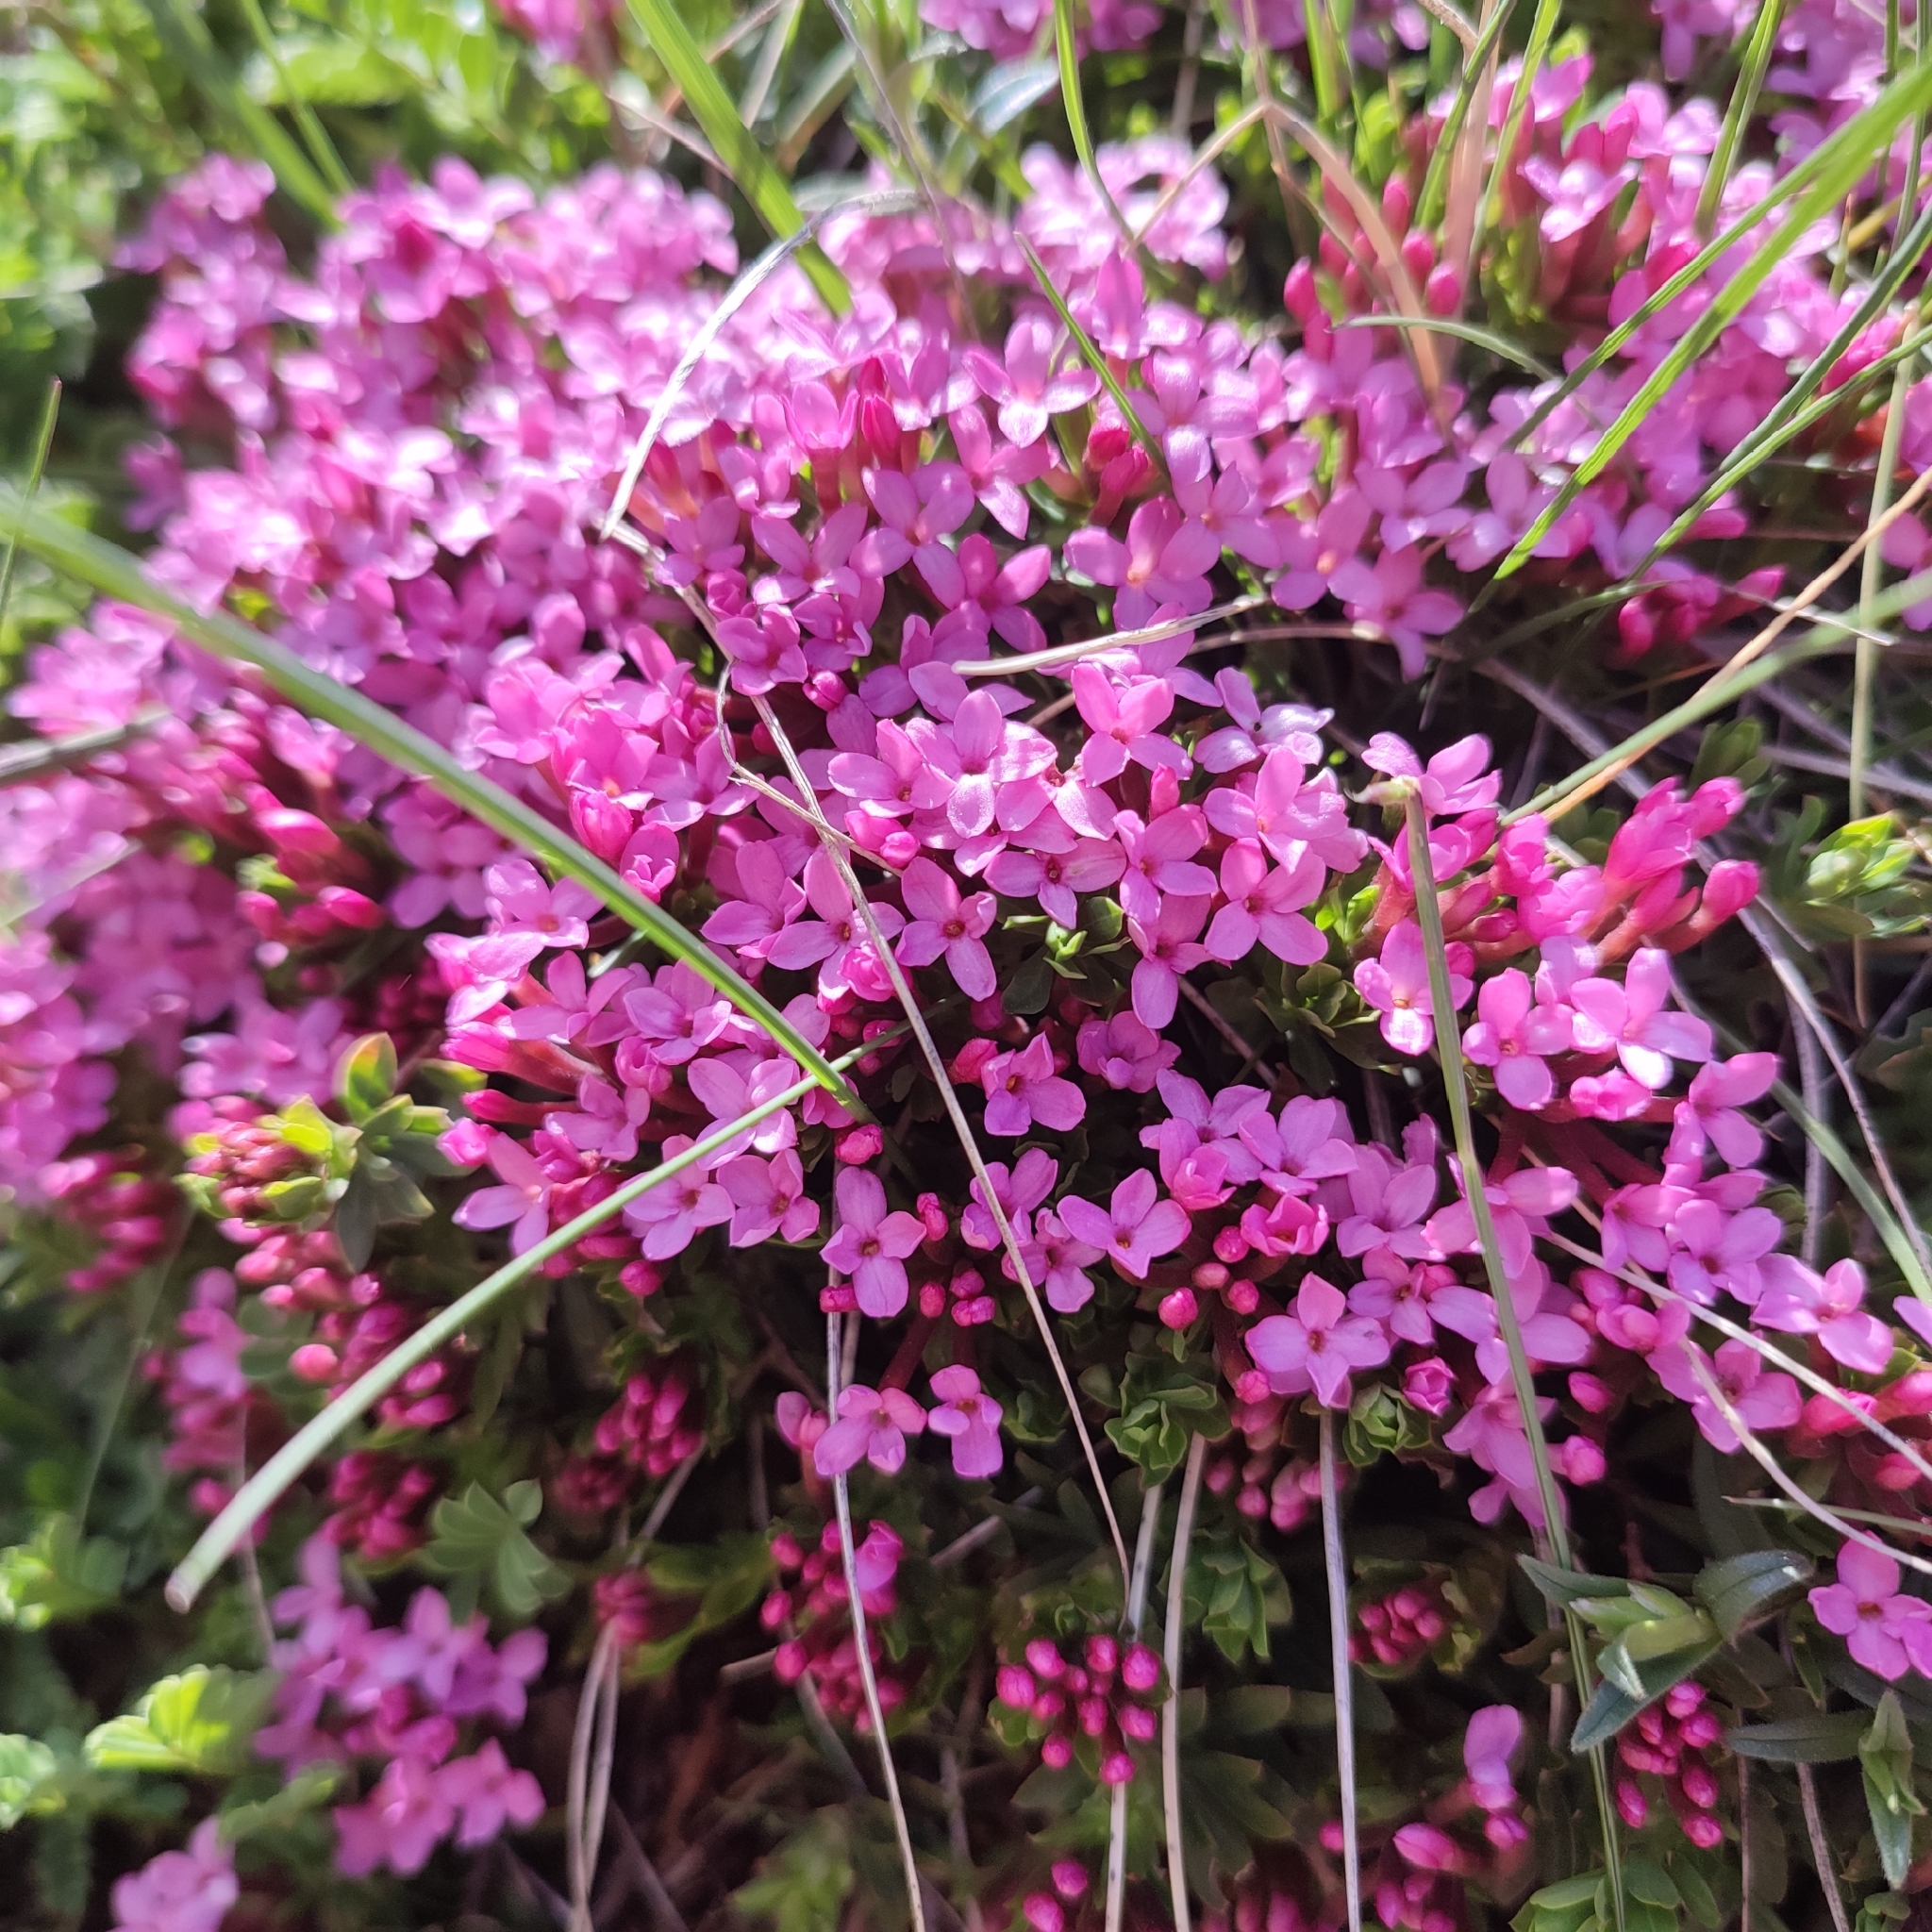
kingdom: Plantae
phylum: Tracheophyta
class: Magnoliopsida
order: Malvales
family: Thymelaeaceae
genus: Daphne
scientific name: Daphne cneorum
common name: Garland-flower
